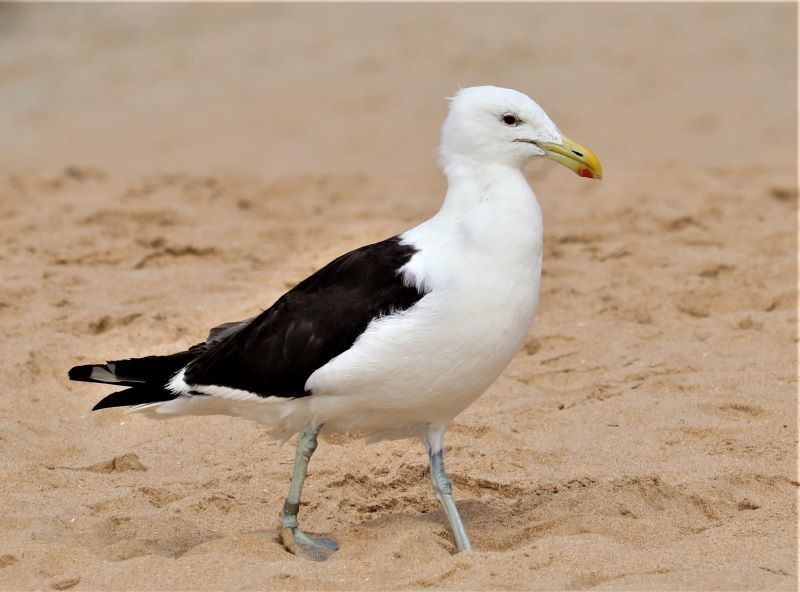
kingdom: Animalia
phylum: Chordata
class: Aves
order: Charadriiformes
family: Laridae
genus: Larus
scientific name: Larus dominicanus
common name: Kelp gull
